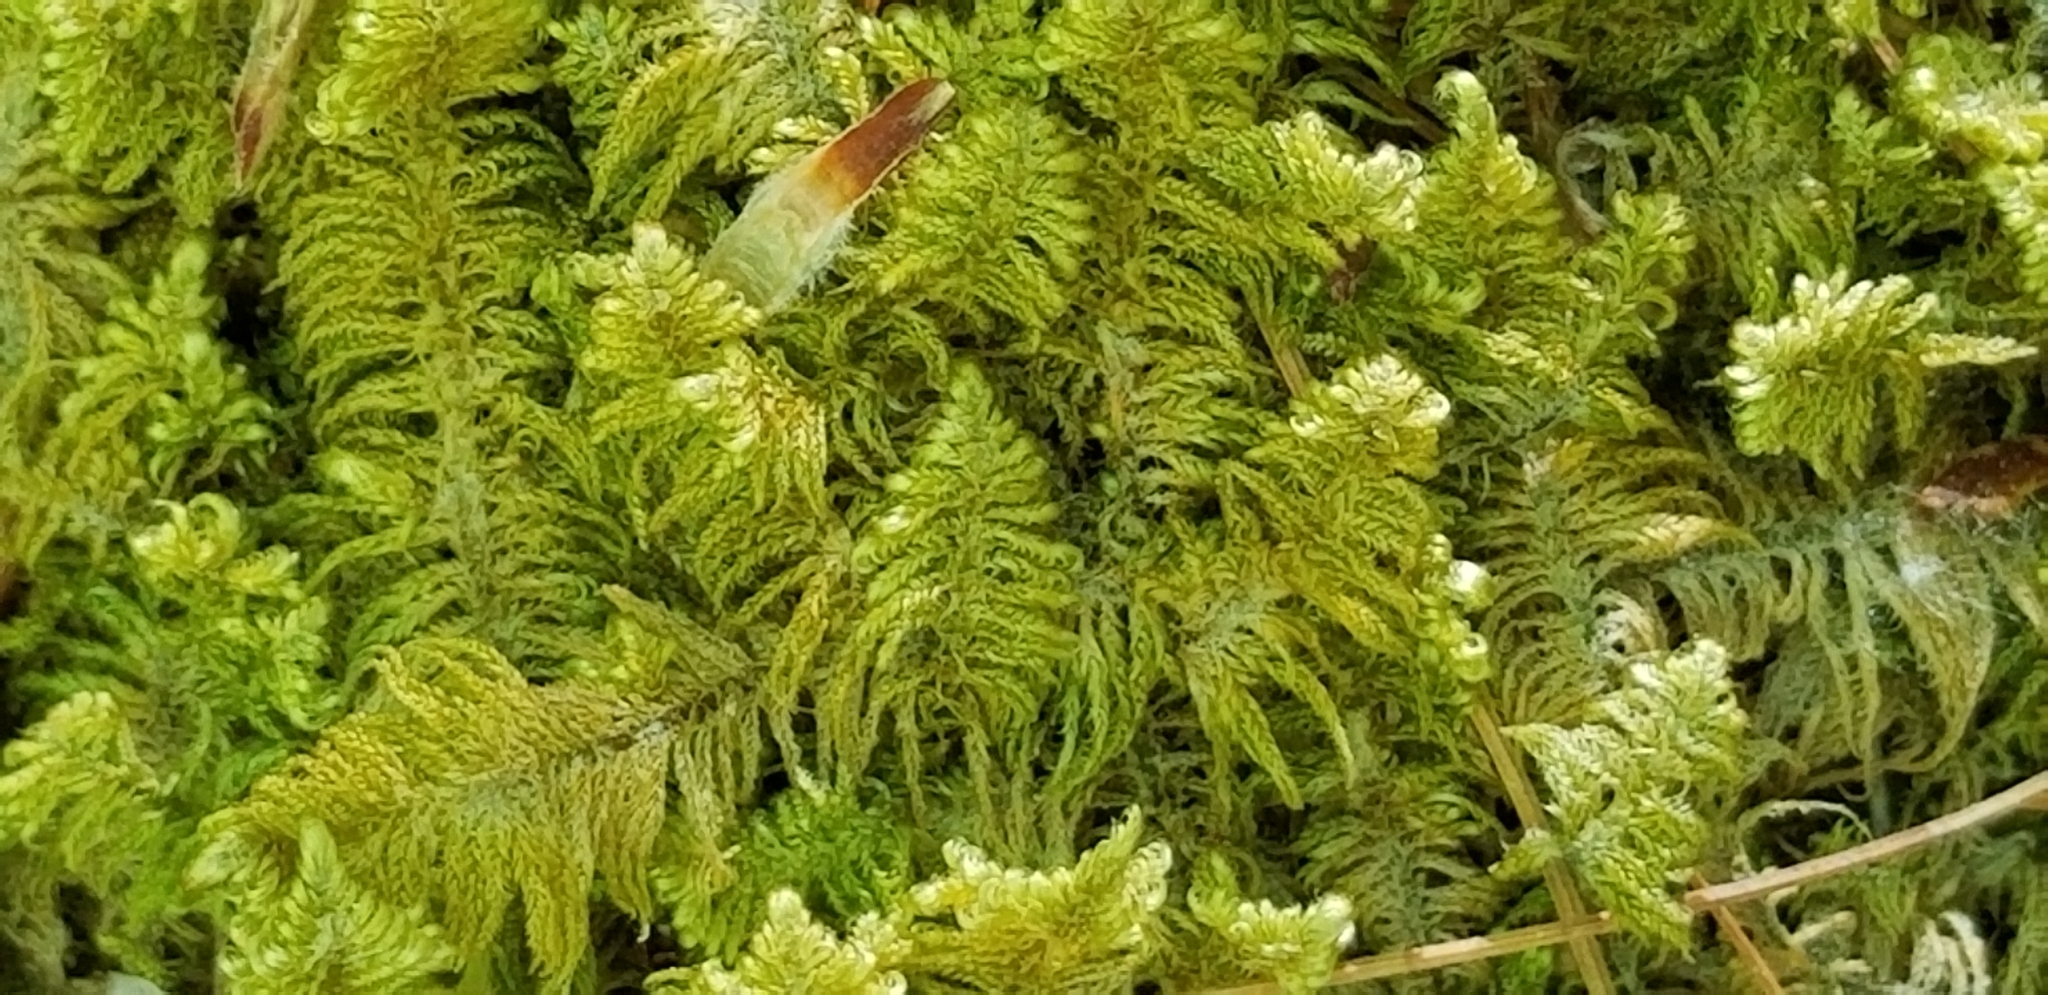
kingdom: Plantae
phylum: Bryophyta
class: Bryopsida
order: Hypnales
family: Pylaisiaceae
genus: Ptilium
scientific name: Ptilium crista-castrensis
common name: Knight's plume moss
